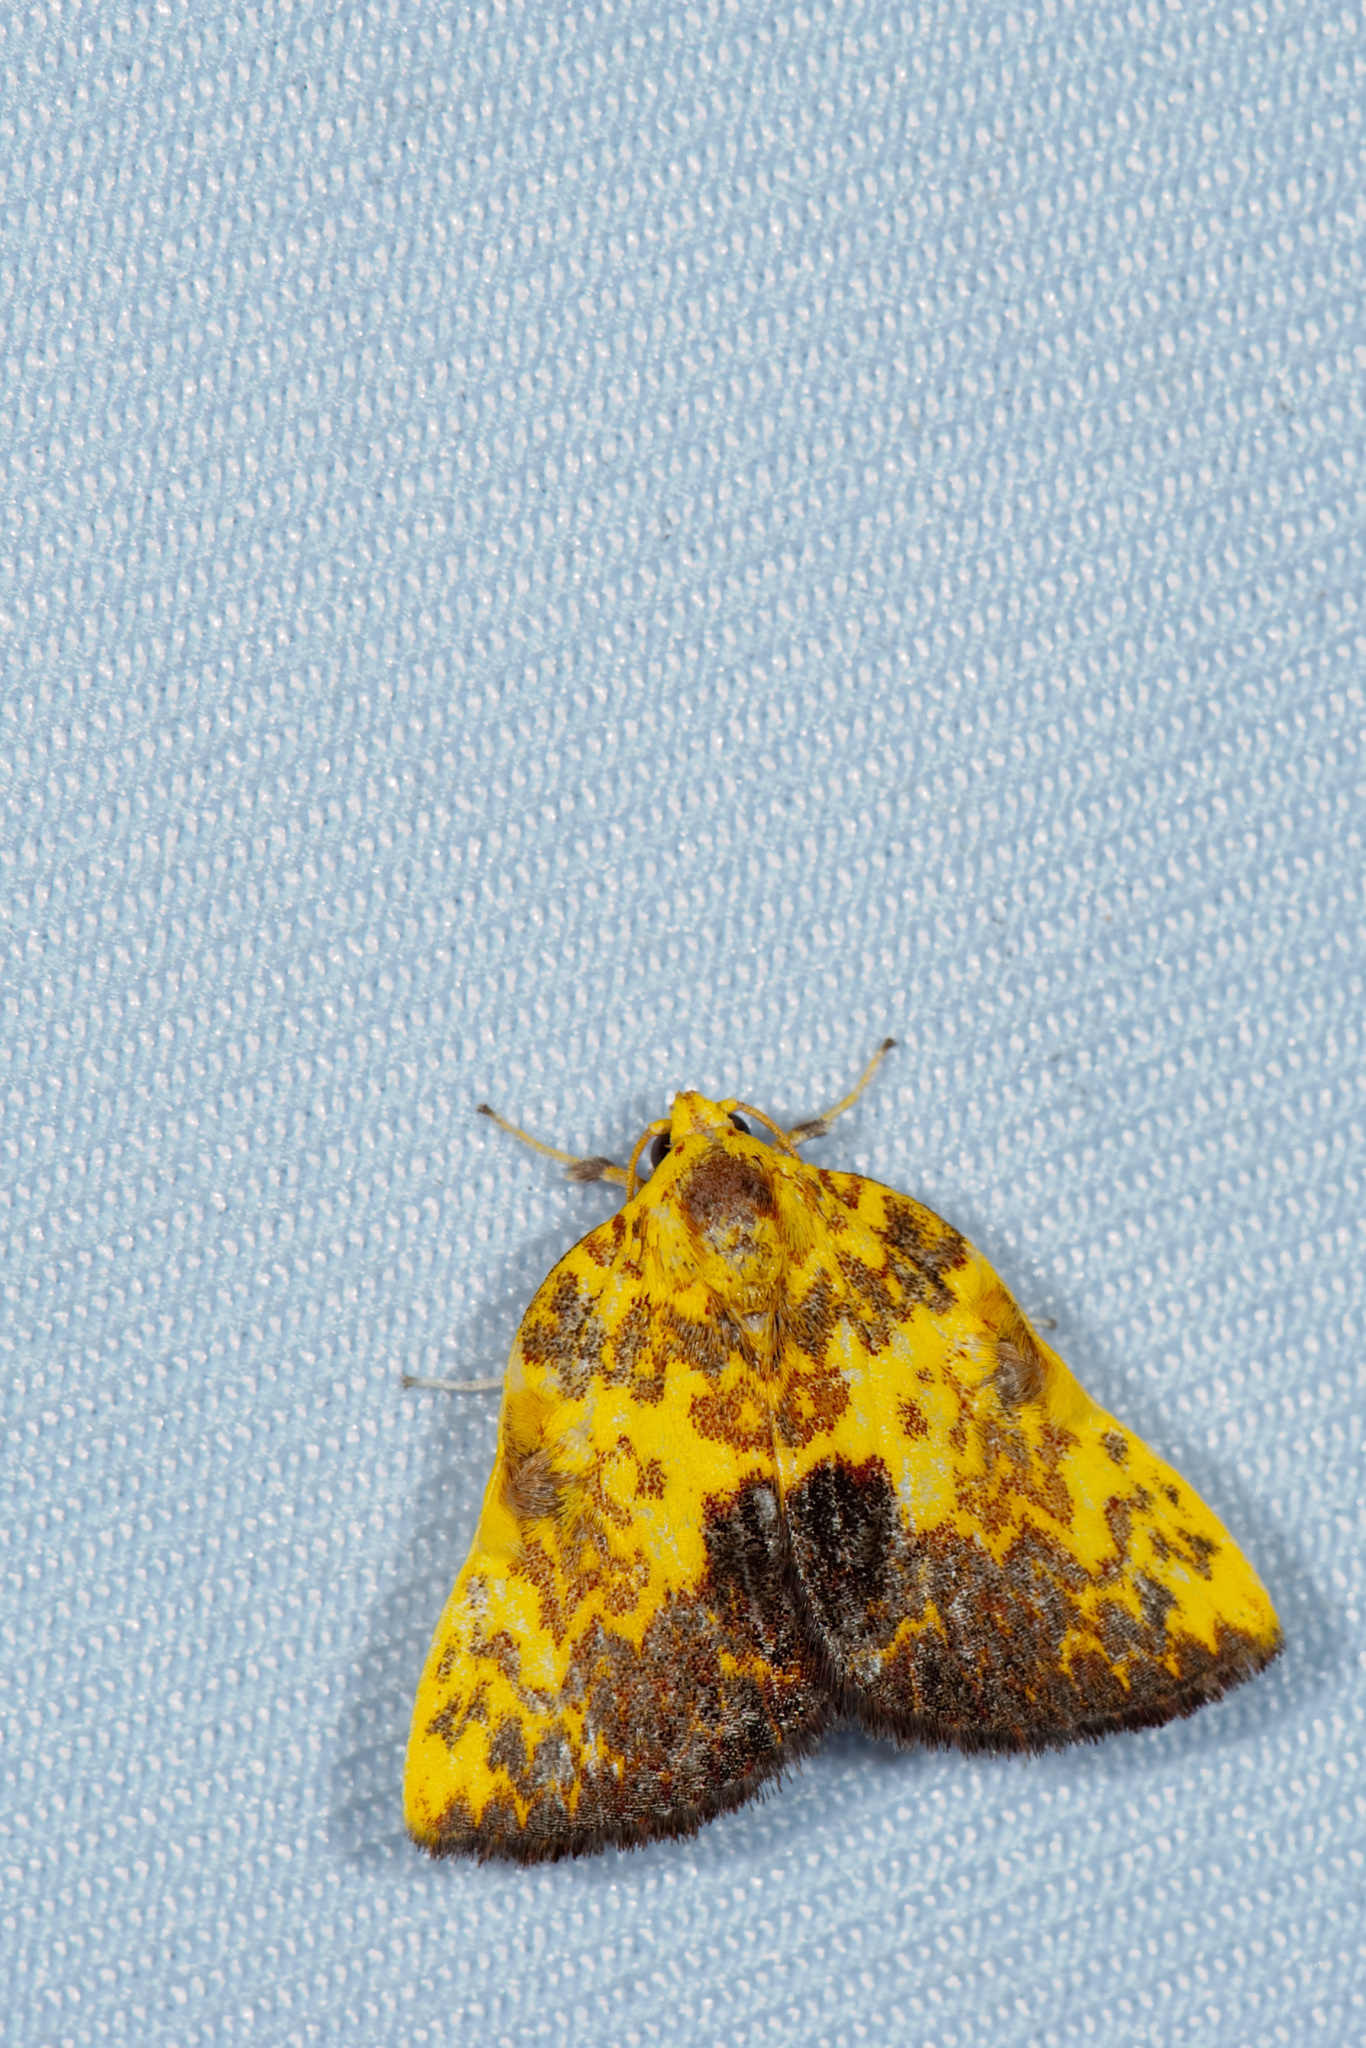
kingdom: Animalia
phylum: Arthropoda
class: Insecta
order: Lepidoptera
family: Nolidae
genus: Siglophora
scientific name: Siglophora ferreilutea
